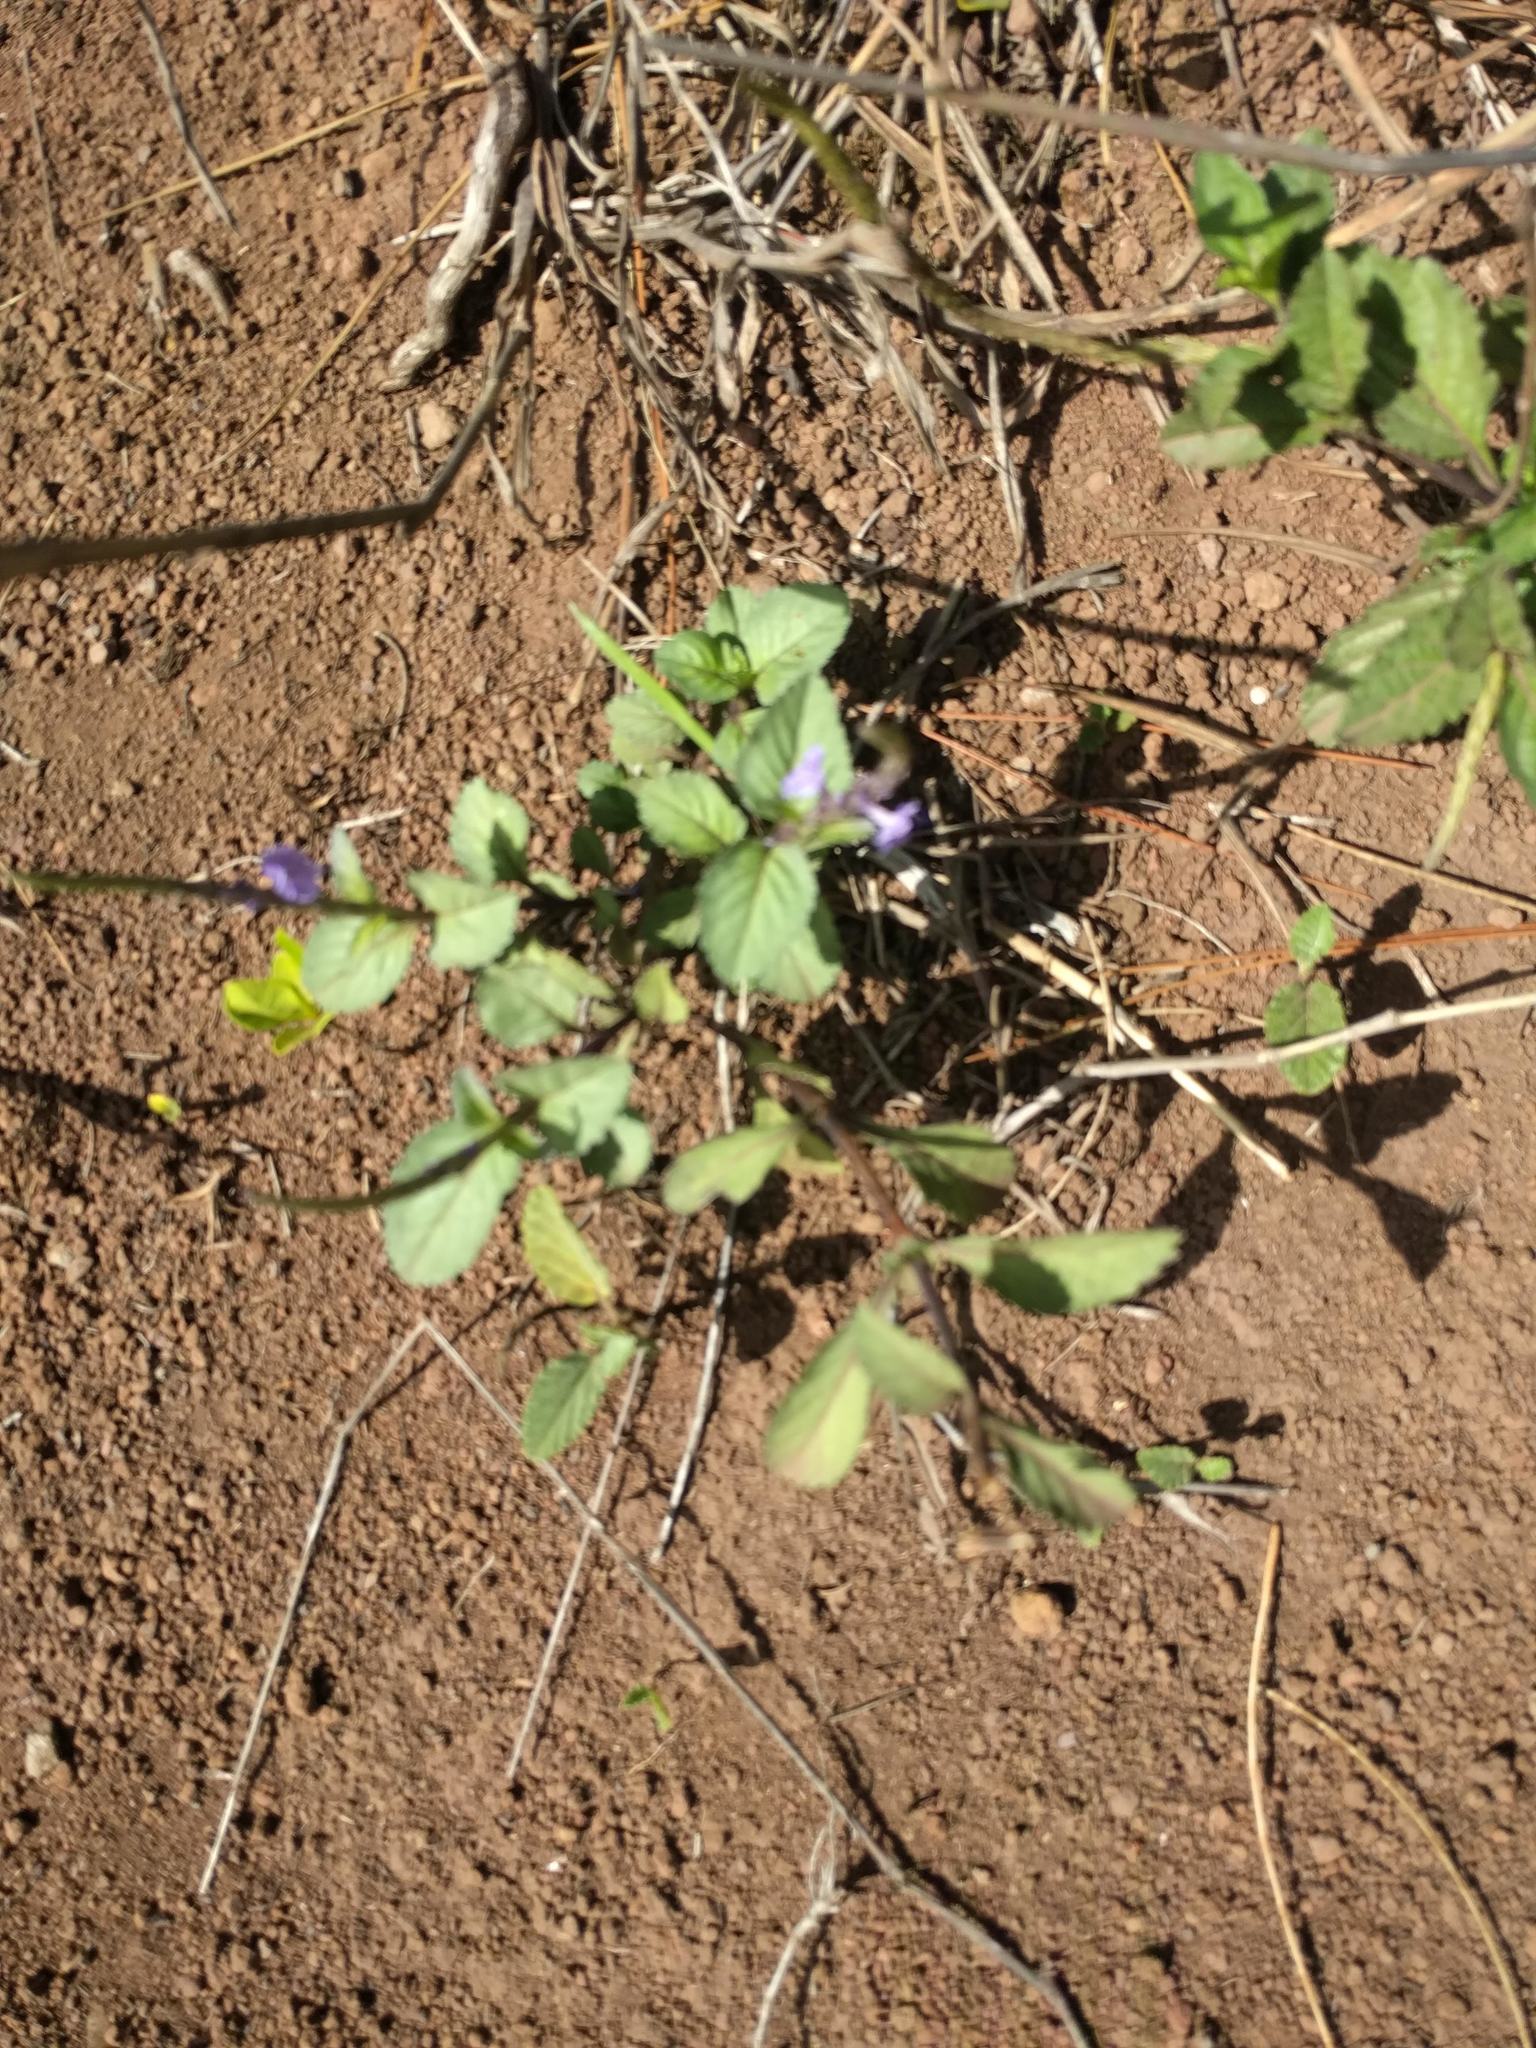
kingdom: Plantae
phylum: Tracheophyta
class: Magnoliopsida
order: Lamiales
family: Verbenaceae
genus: Stachytarpheta
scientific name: Stachytarpheta jamaicensis
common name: Light-blue snakeweed
